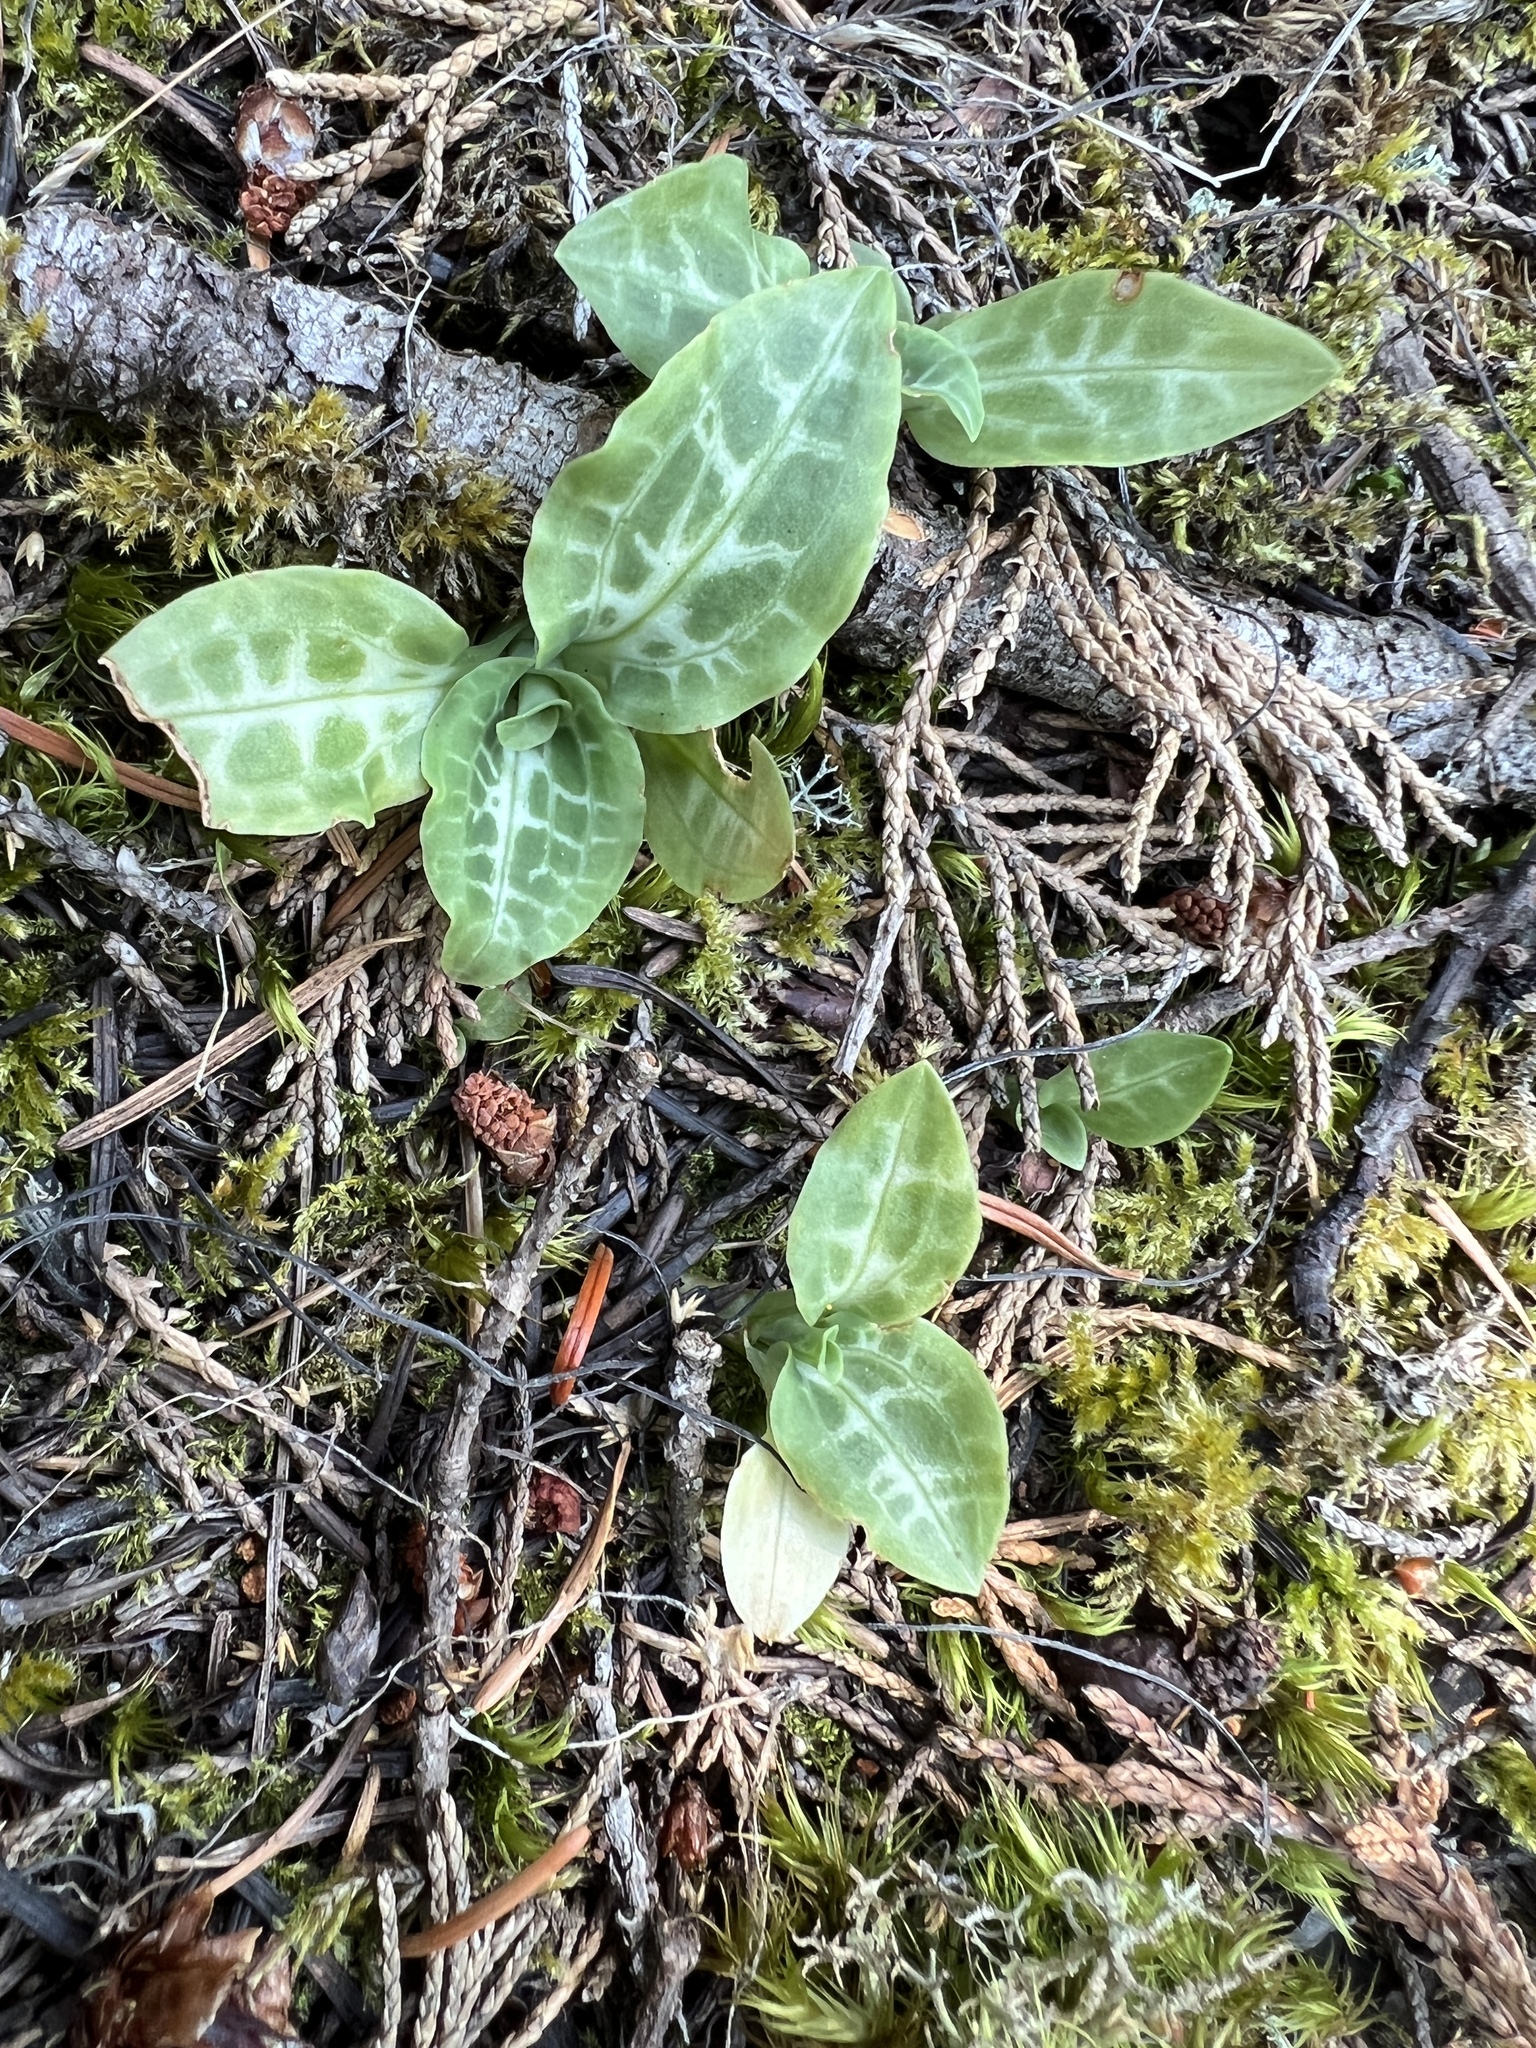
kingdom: Plantae
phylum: Tracheophyta
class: Liliopsida
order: Asparagales
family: Orchidaceae
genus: Goodyera
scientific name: Goodyera oblongifolia
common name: Giant rattlesnake-plantain
